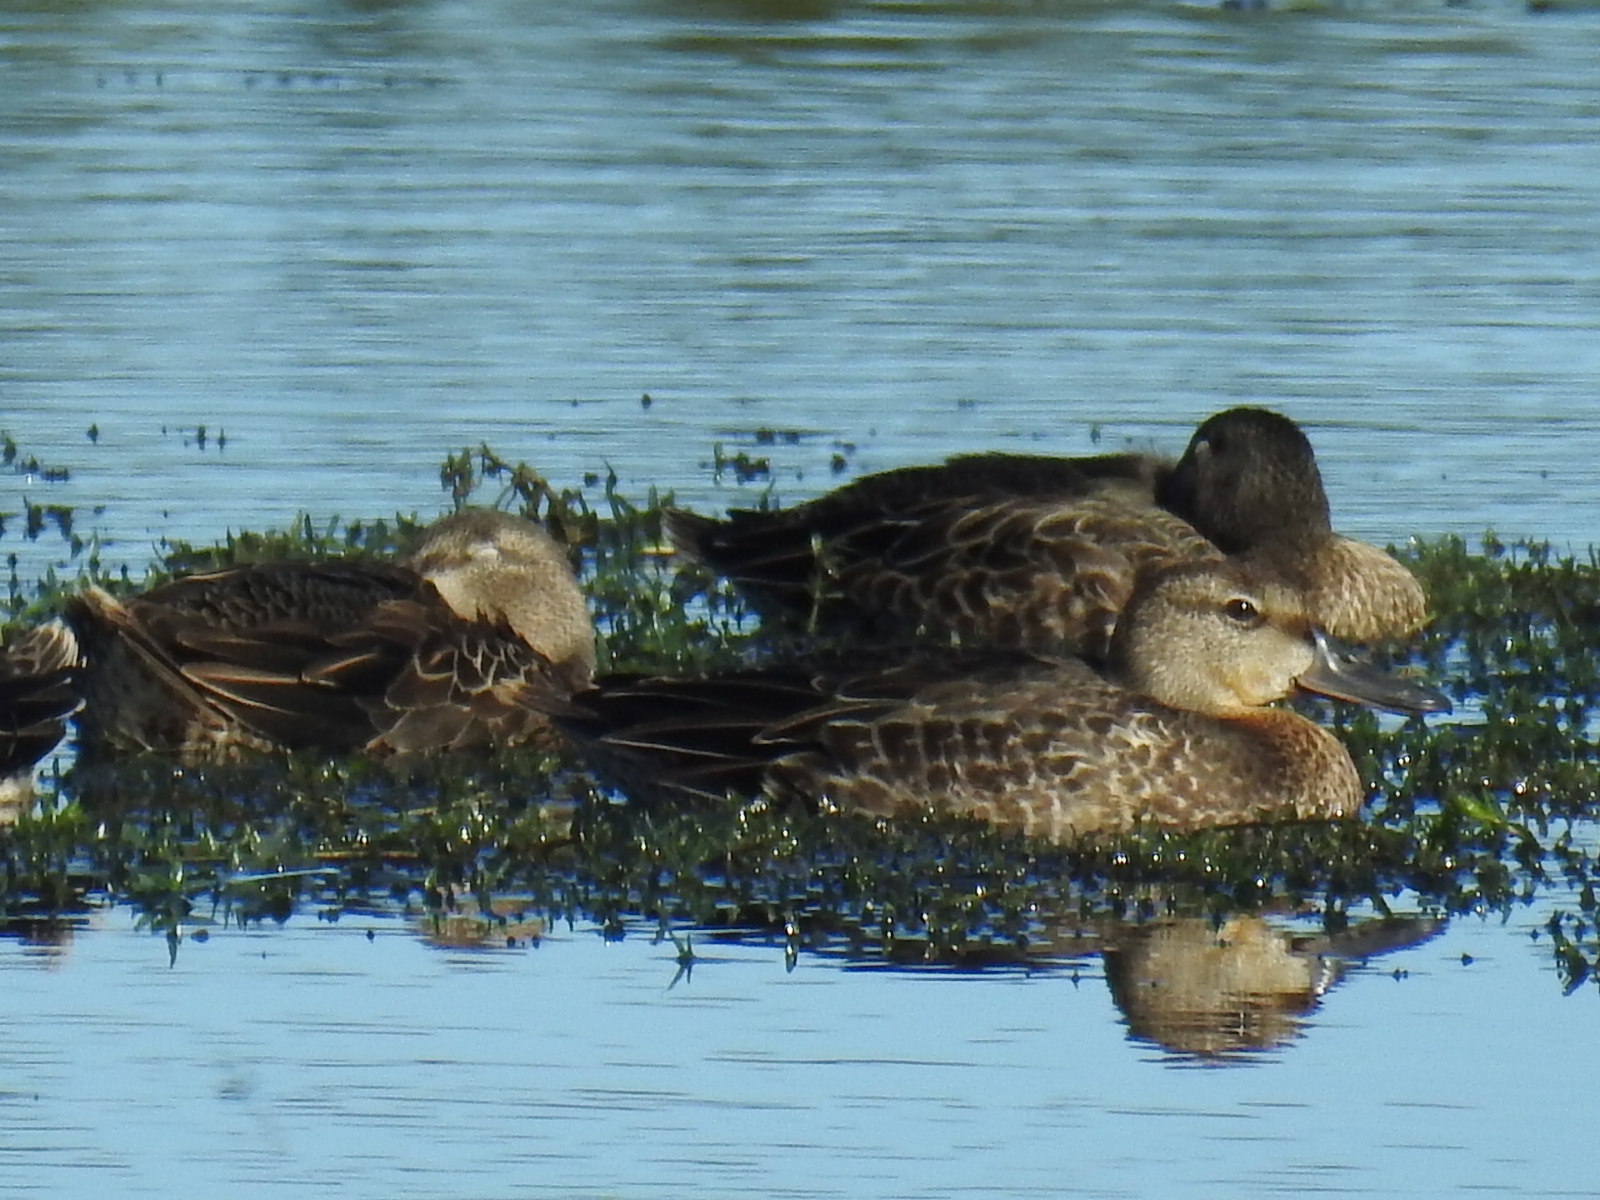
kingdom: Animalia
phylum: Chordata
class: Aves
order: Anseriformes
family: Anatidae
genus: Spatula
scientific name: Spatula discors
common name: Blue-winged teal
